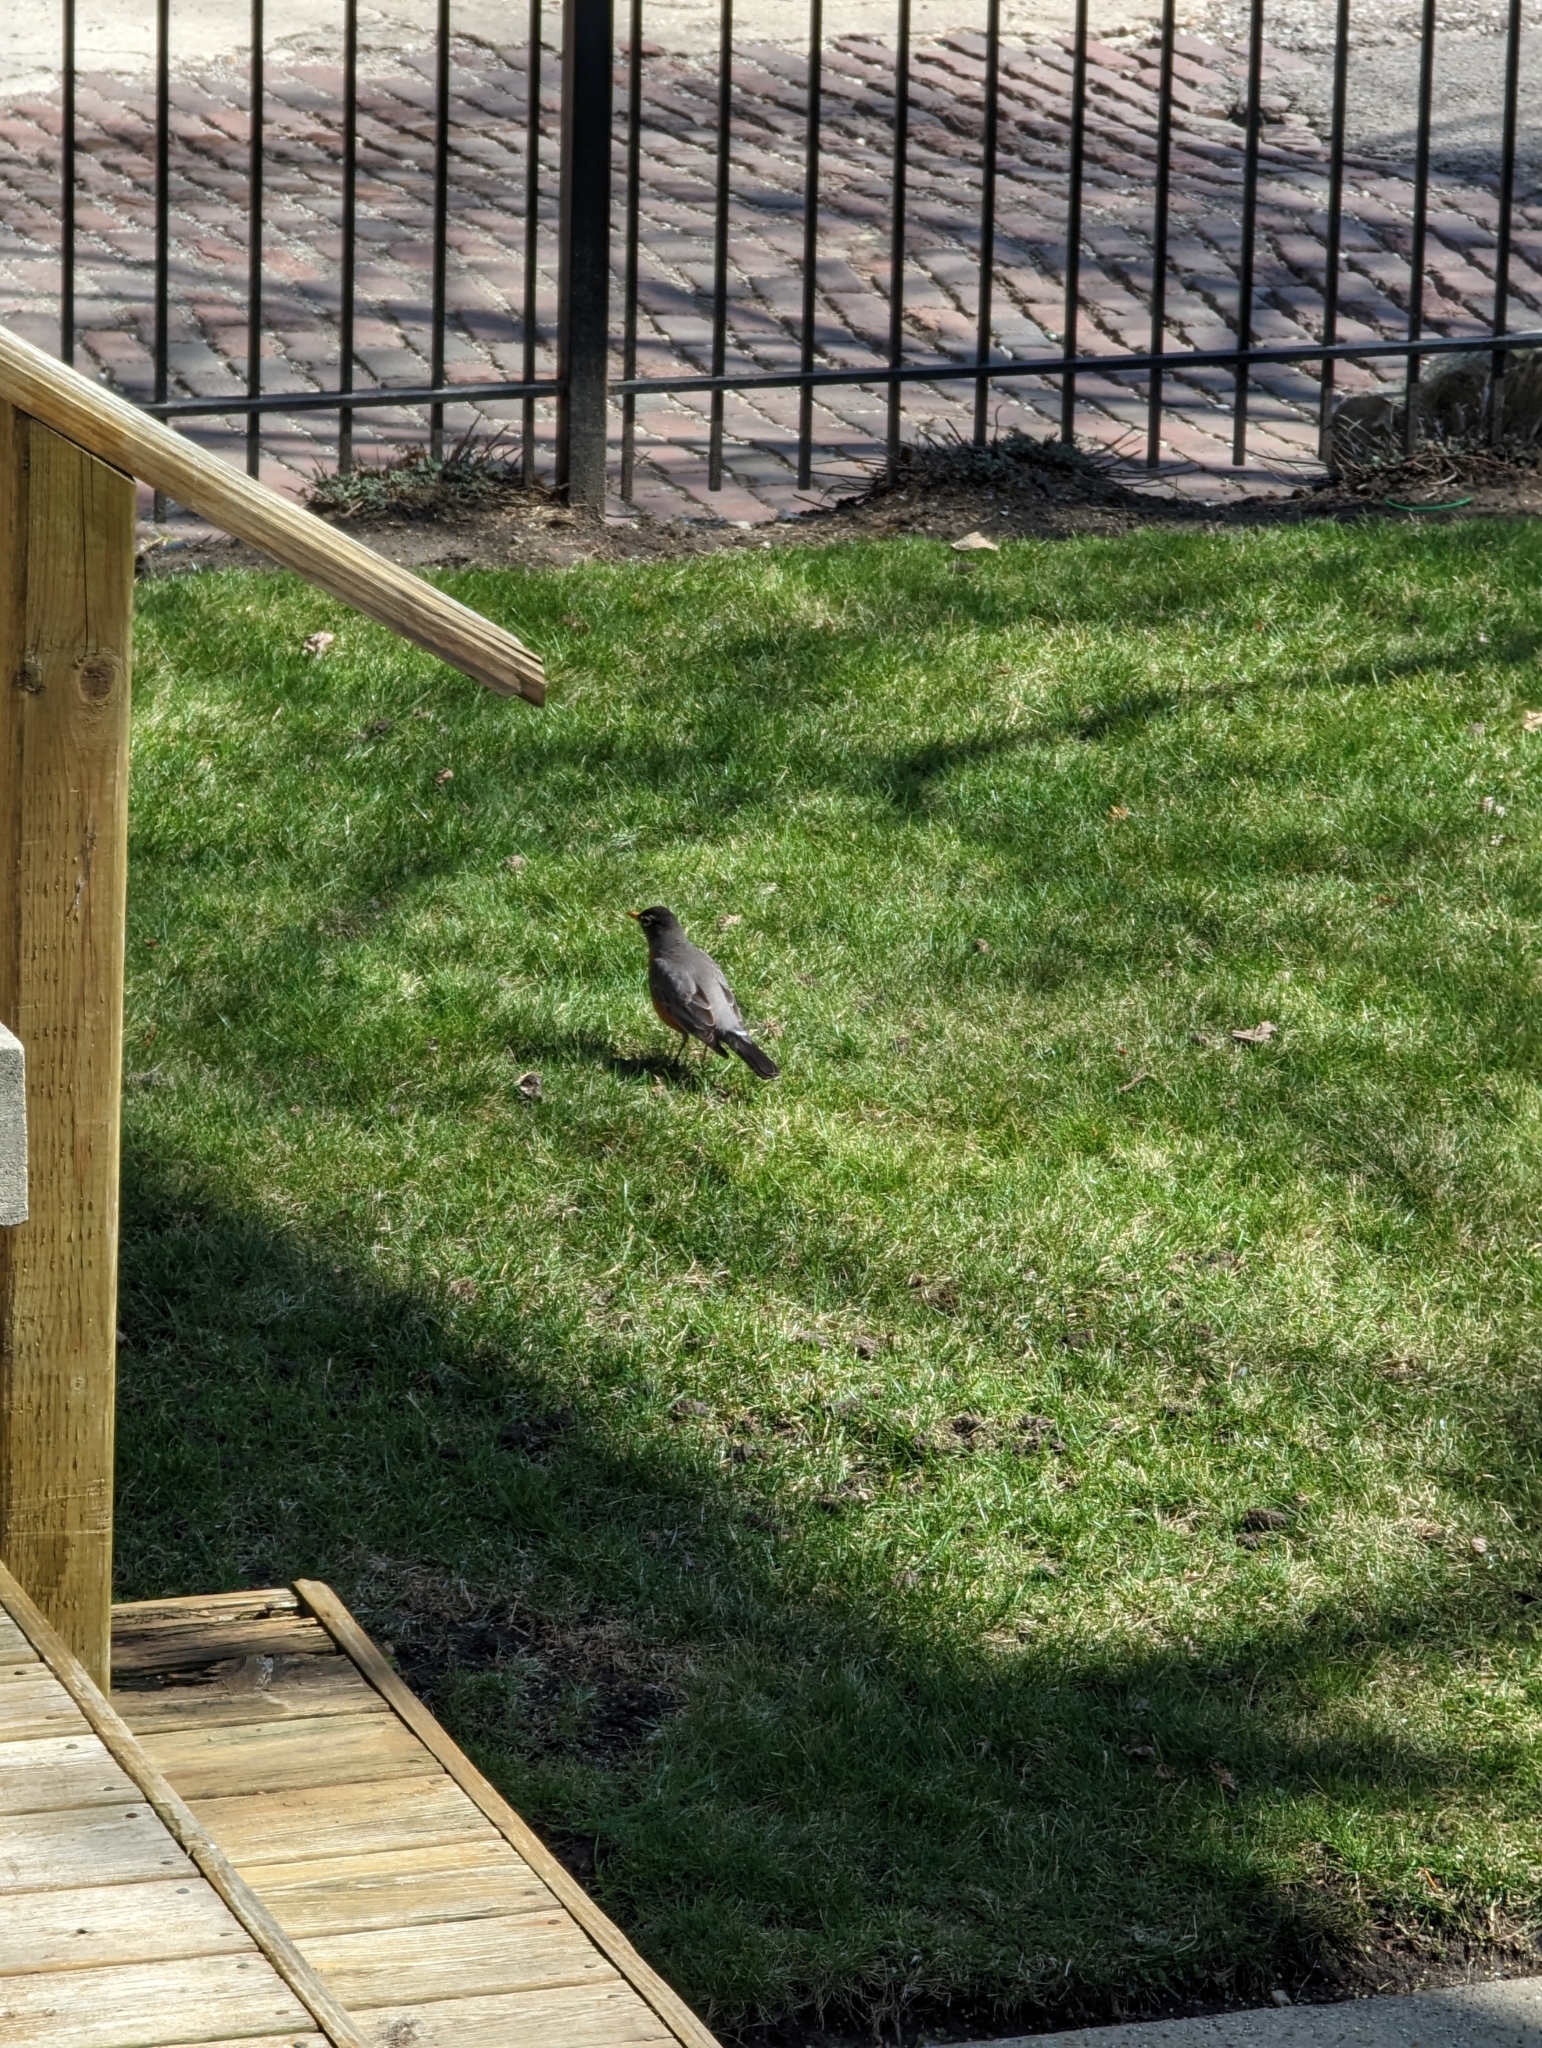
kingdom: Animalia
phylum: Chordata
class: Aves
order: Passeriformes
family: Turdidae
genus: Turdus
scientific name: Turdus migratorius
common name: American robin
